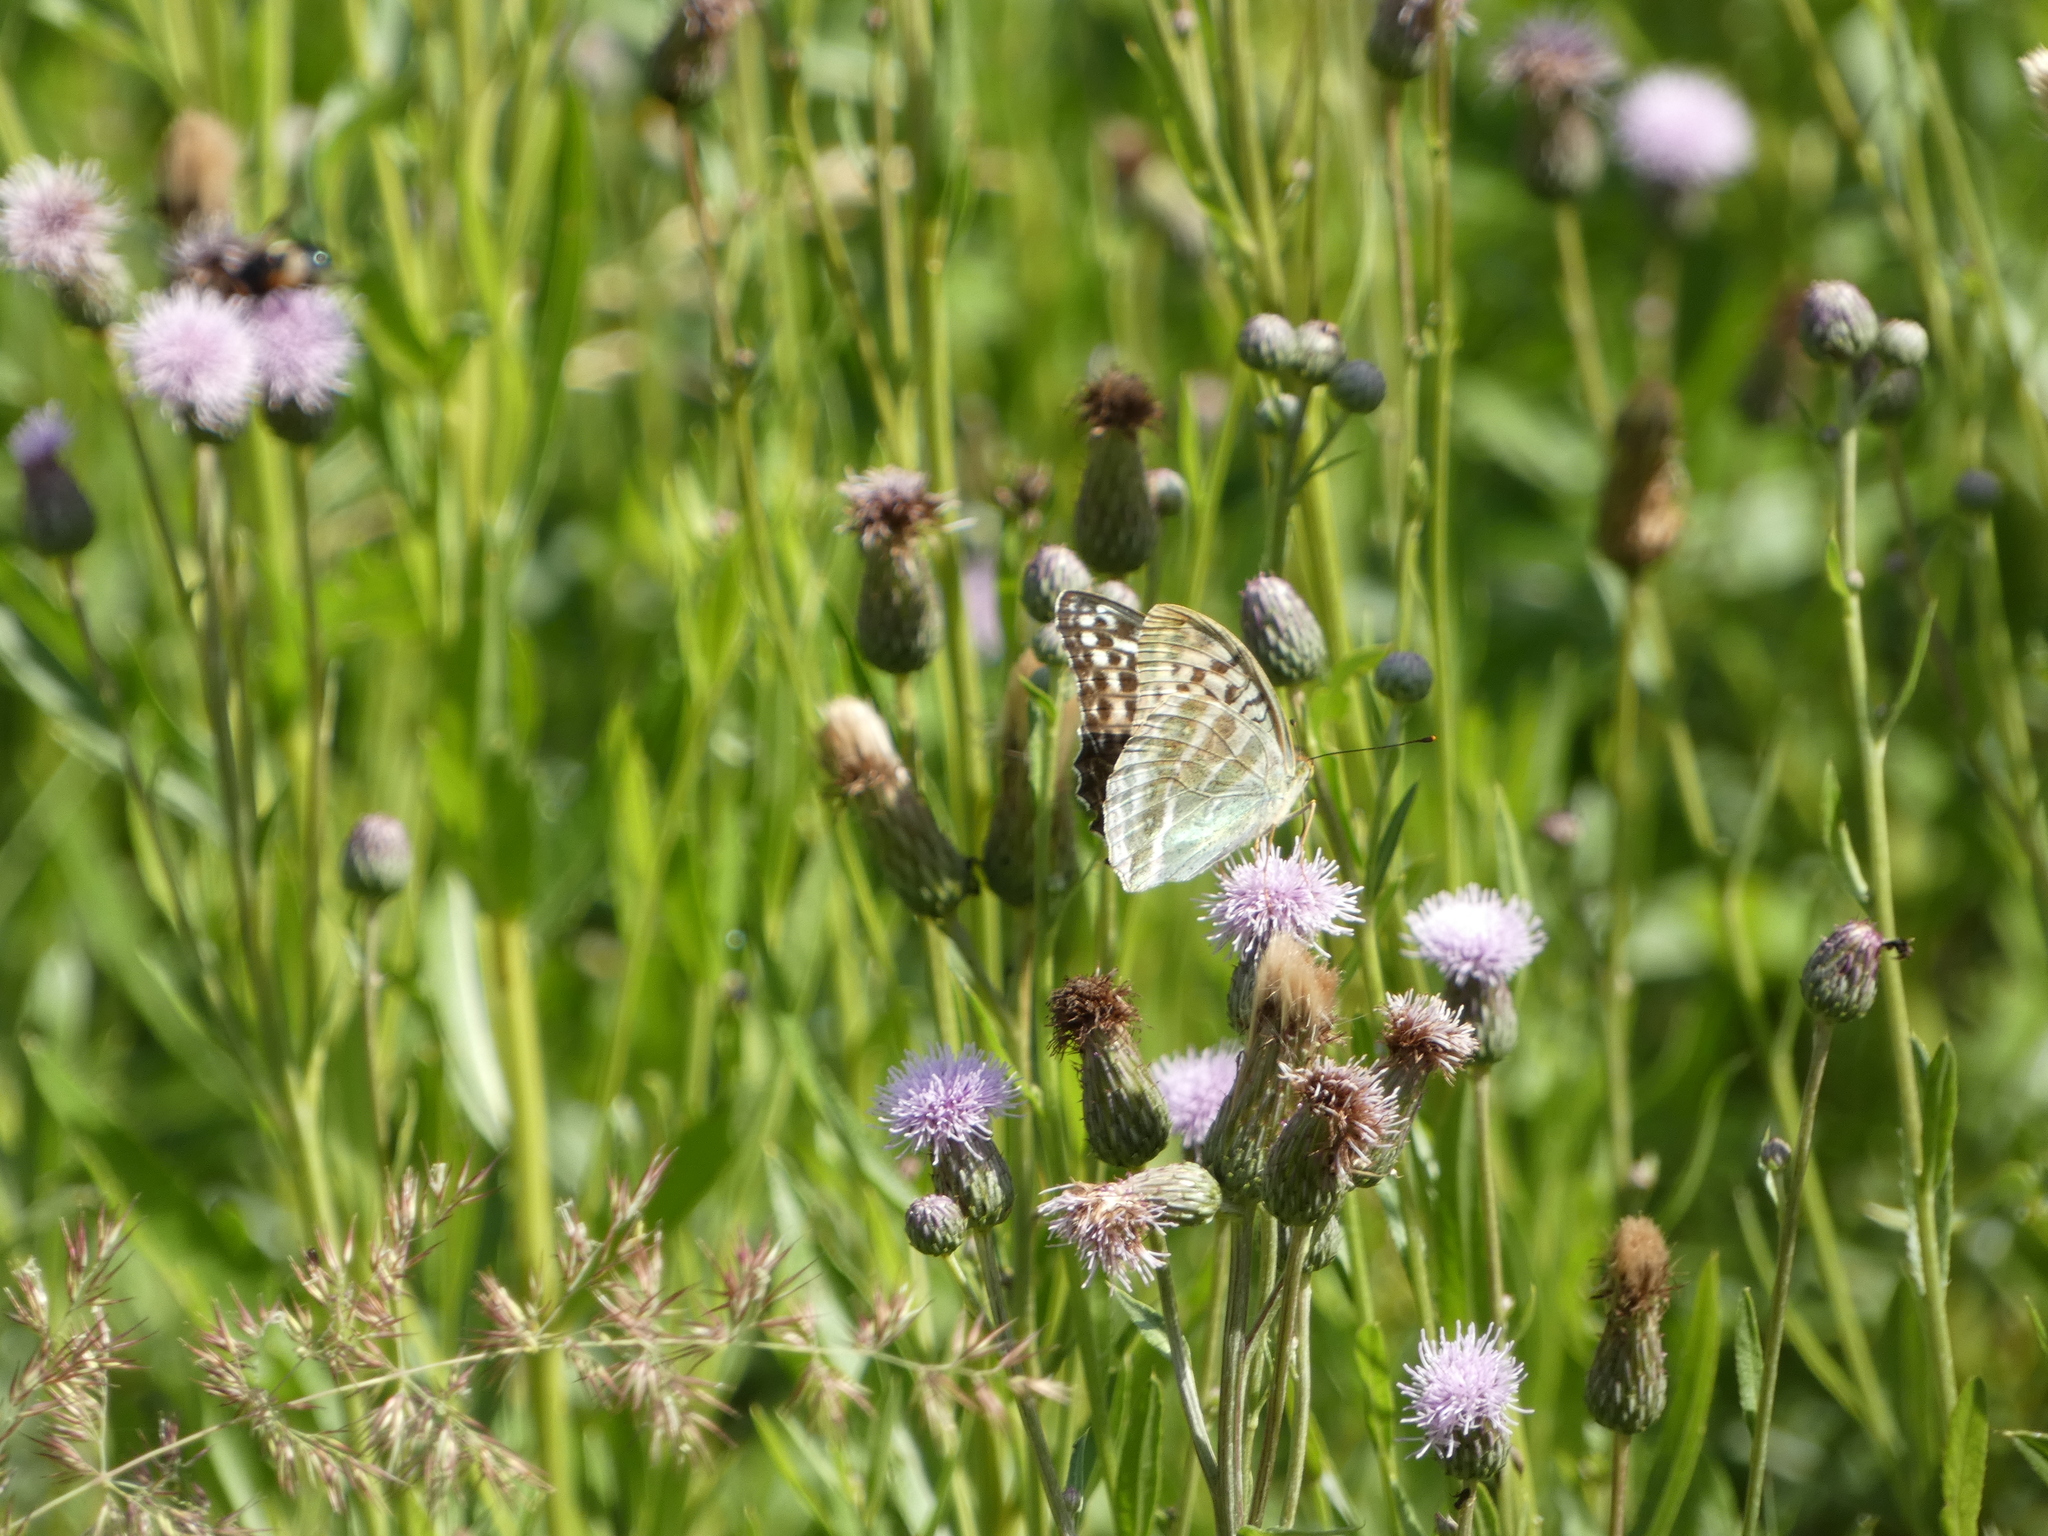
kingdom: Animalia
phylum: Arthropoda
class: Insecta
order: Lepidoptera
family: Nymphalidae
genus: Argynnis
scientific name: Argynnis paphia
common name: Silver-washed fritillary
